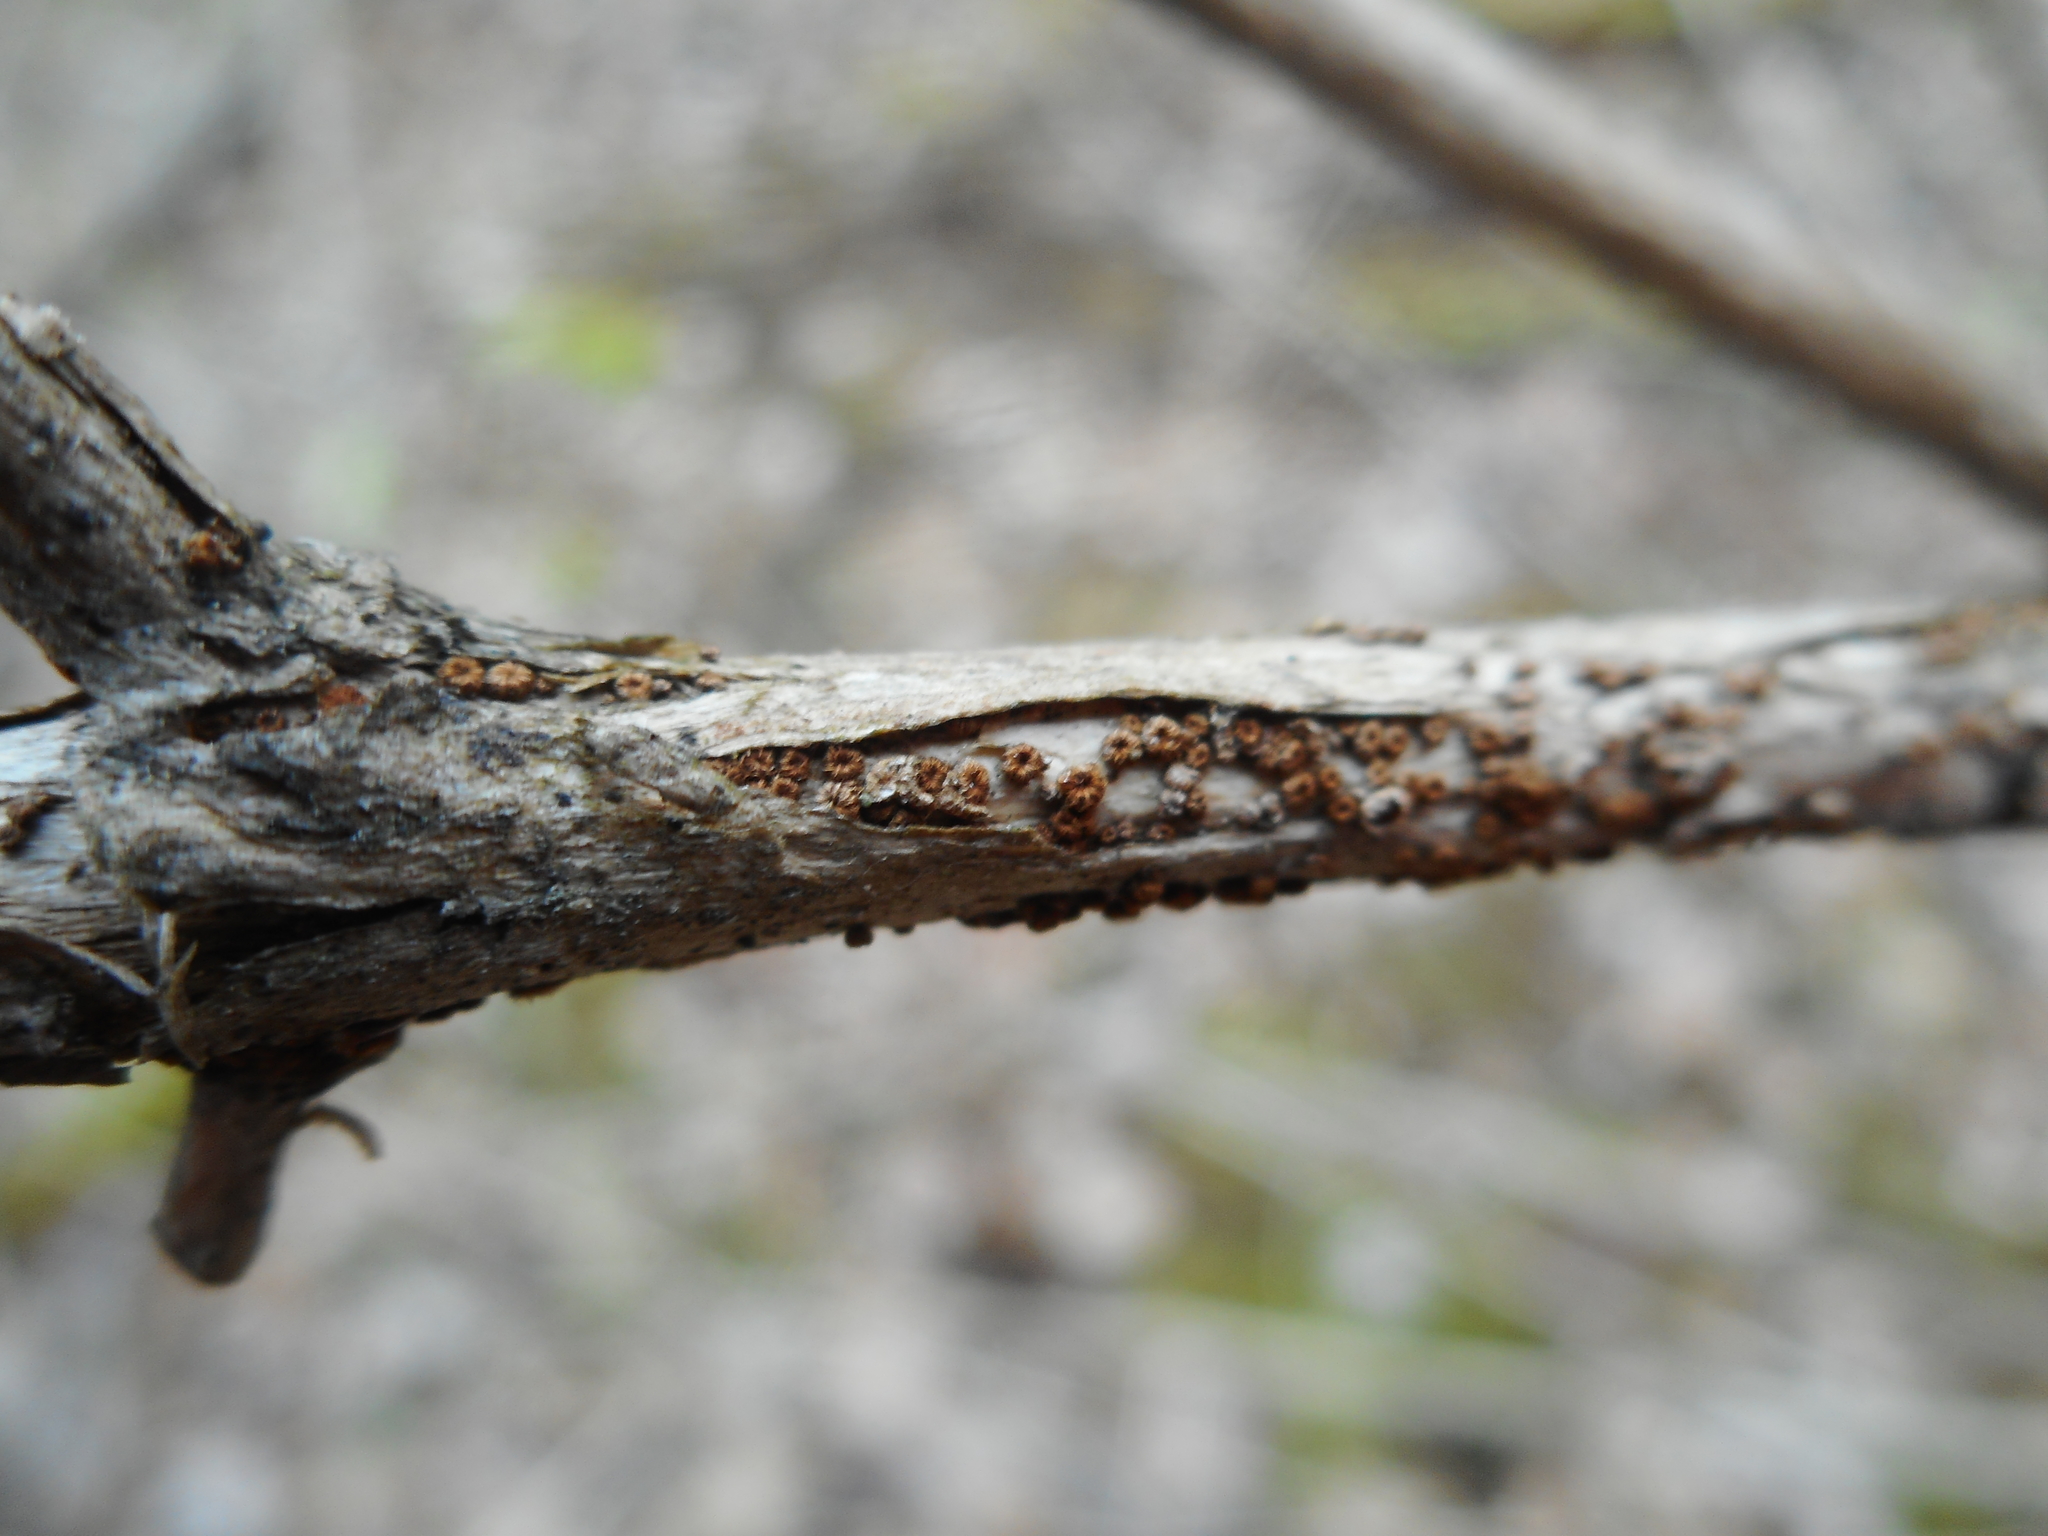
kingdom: Fungi
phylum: Ascomycota
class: Leotiomycetes
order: Helotiales
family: Solenopeziaceae
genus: Trichopezizella
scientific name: Trichopezizella barbata
